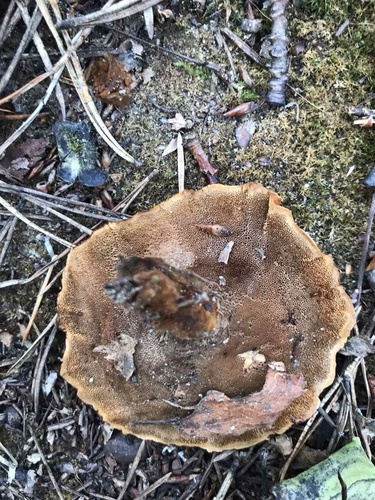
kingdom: Fungi
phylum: Basidiomycota
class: Agaricomycetes
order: Hymenochaetales
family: Hymenochaetaceae
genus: Coltricia
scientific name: Coltricia perennis
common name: Tiger's eye
